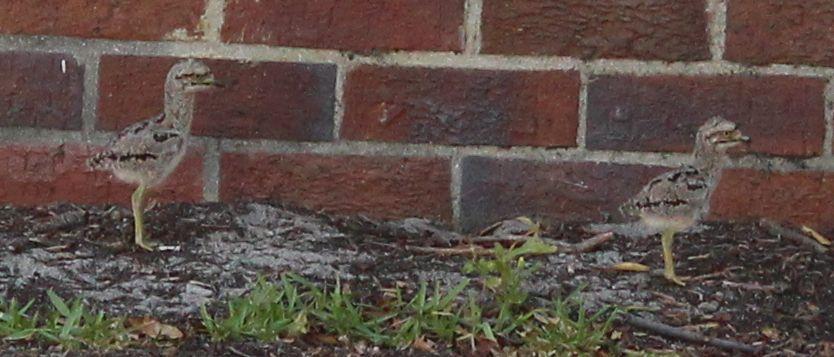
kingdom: Animalia
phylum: Chordata
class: Aves
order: Charadriiformes
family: Burhinidae
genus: Burhinus
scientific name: Burhinus capensis
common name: Spotted thick-knee
